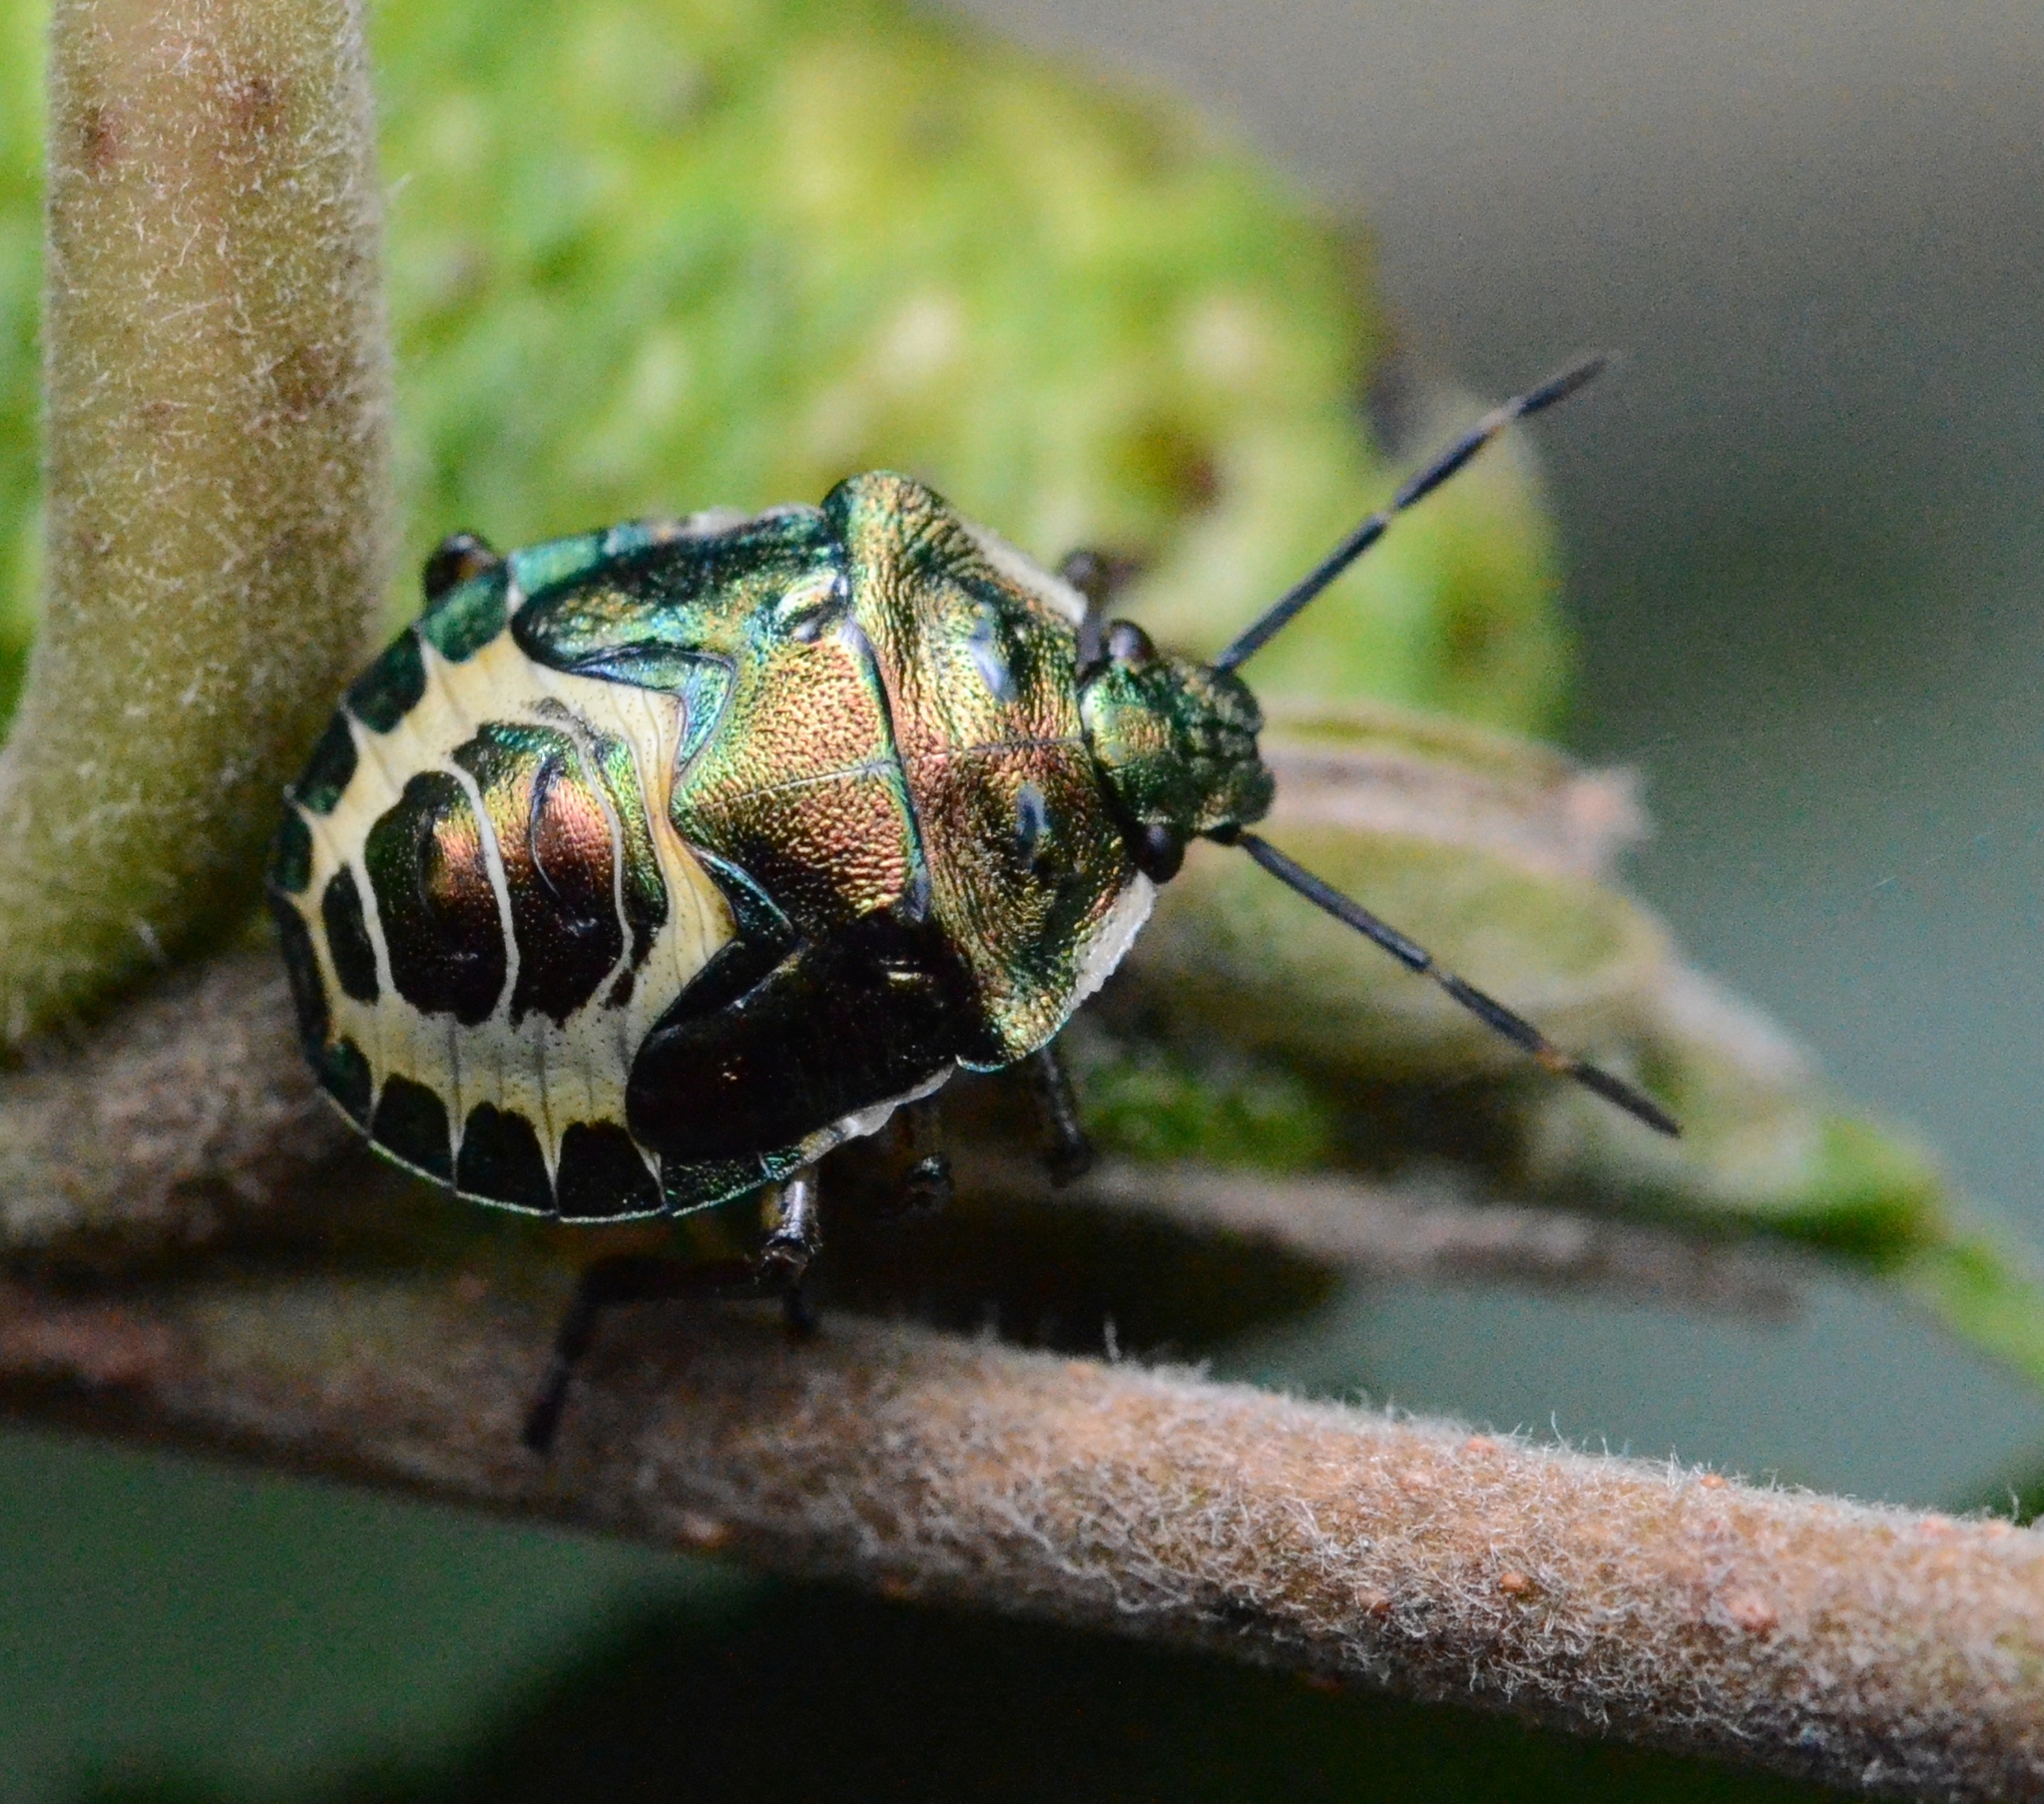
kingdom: Animalia
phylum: Arthropoda
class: Insecta
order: Hemiptera
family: Pentatomidae
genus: Troilus
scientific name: Troilus luridus
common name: Bronze shieldbug
